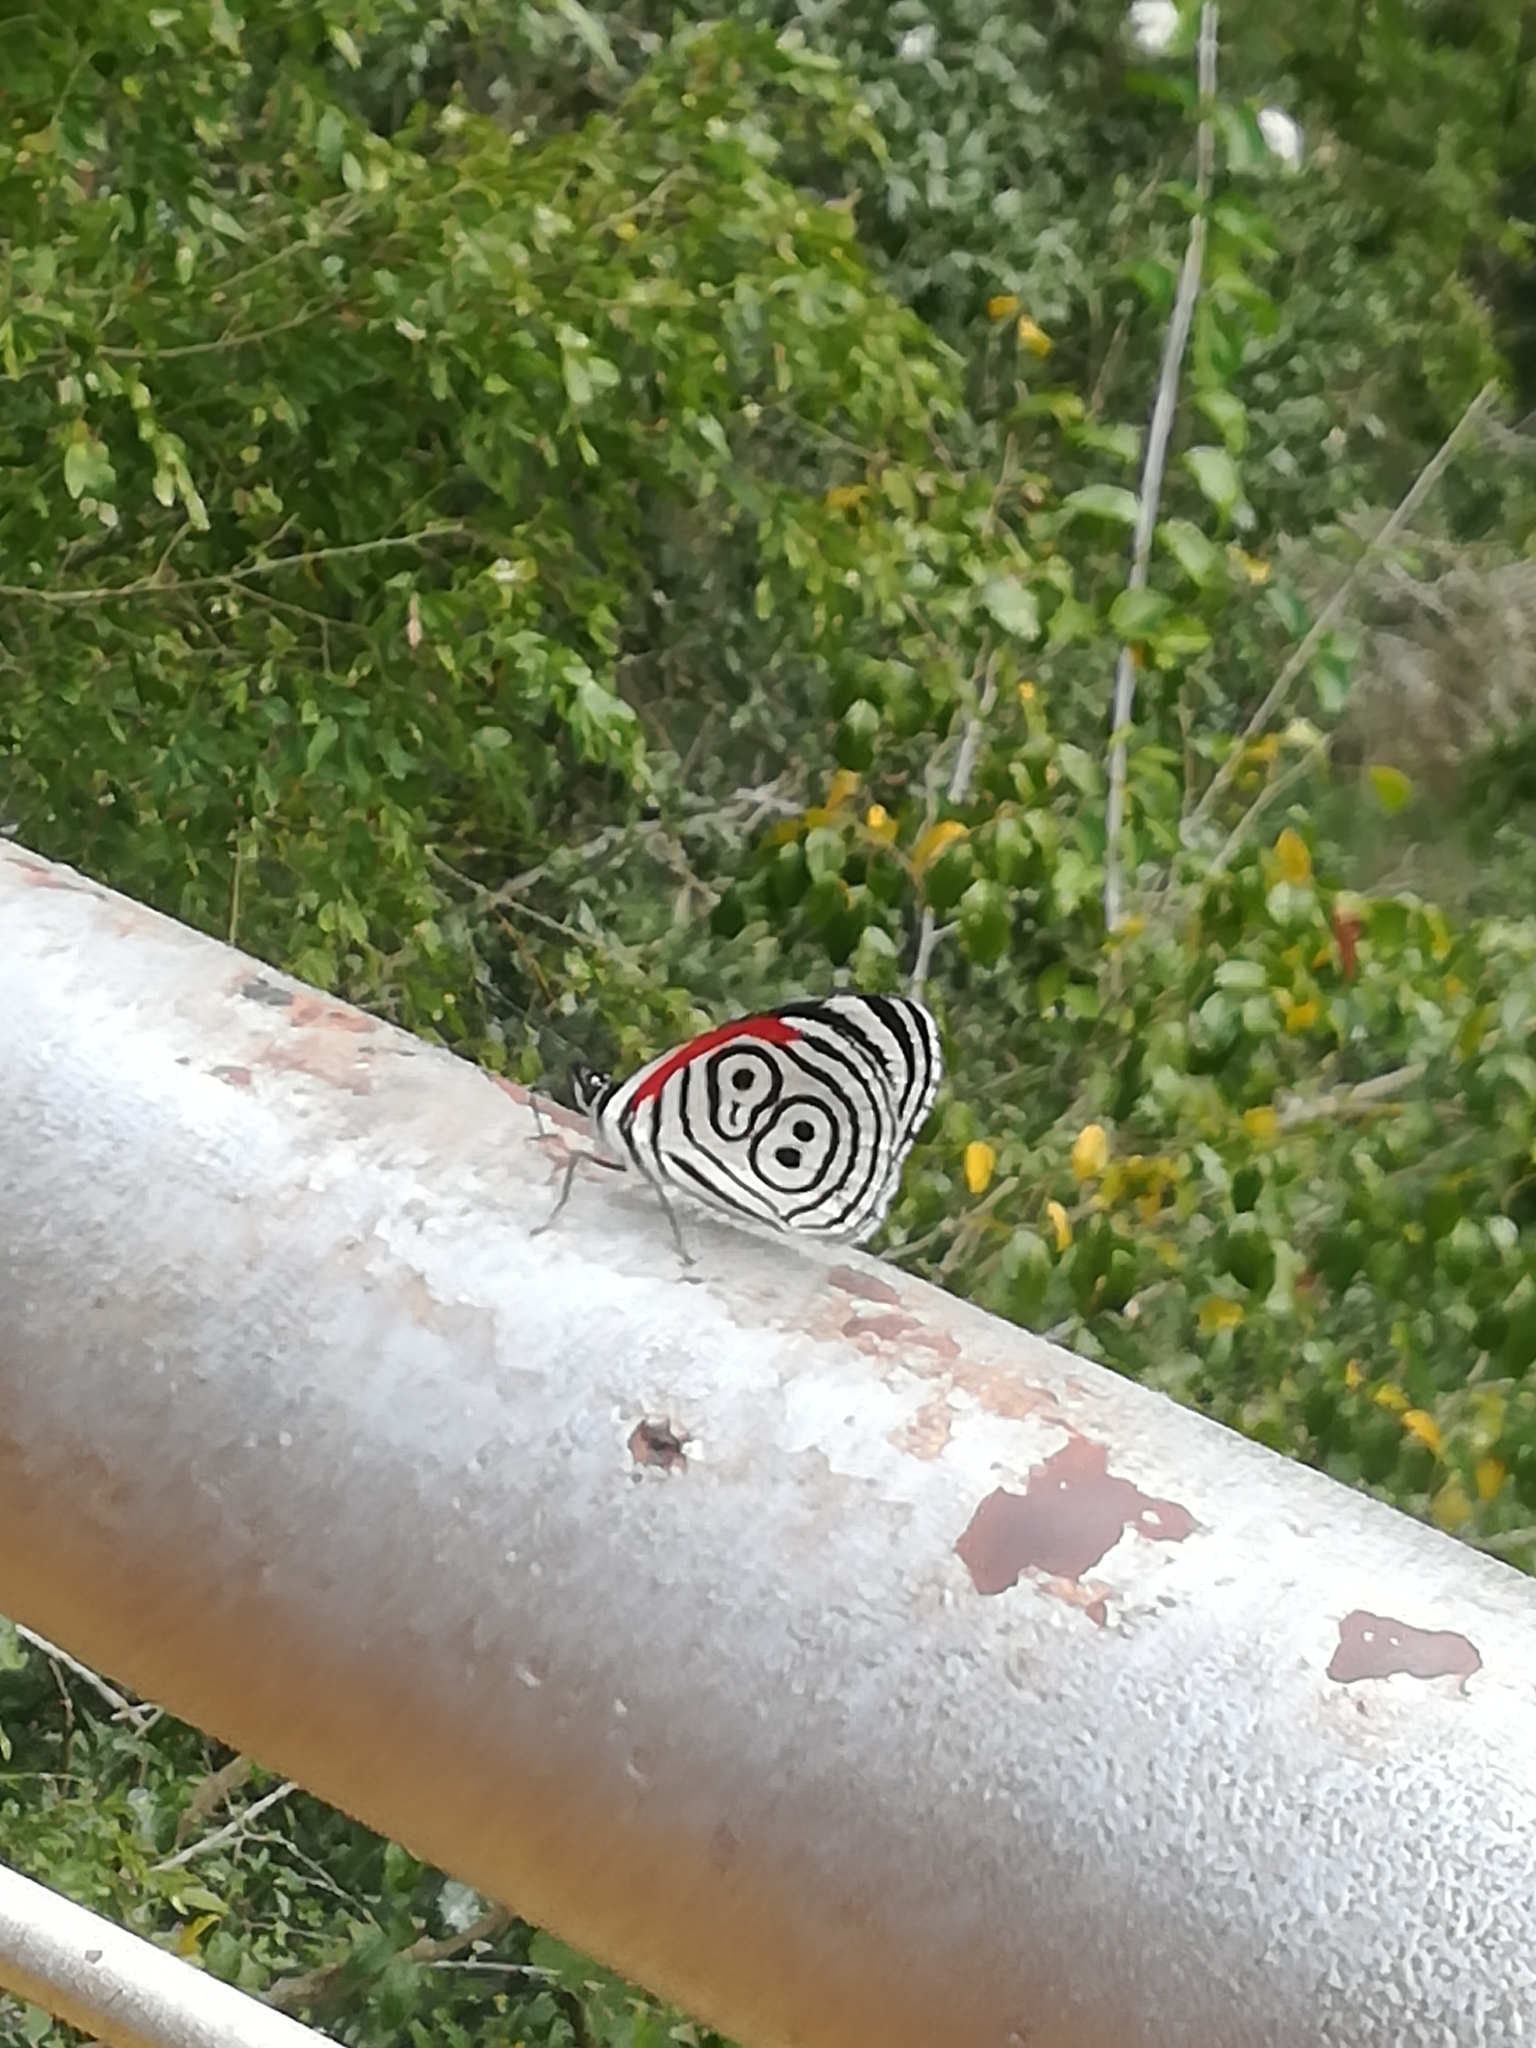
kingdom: Animalia
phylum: Arthropoda
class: Insecta
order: Lepidoptera
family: Nymphalidae
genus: Diaethria
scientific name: Diaethria clymena
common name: Widespread eighty-eight
